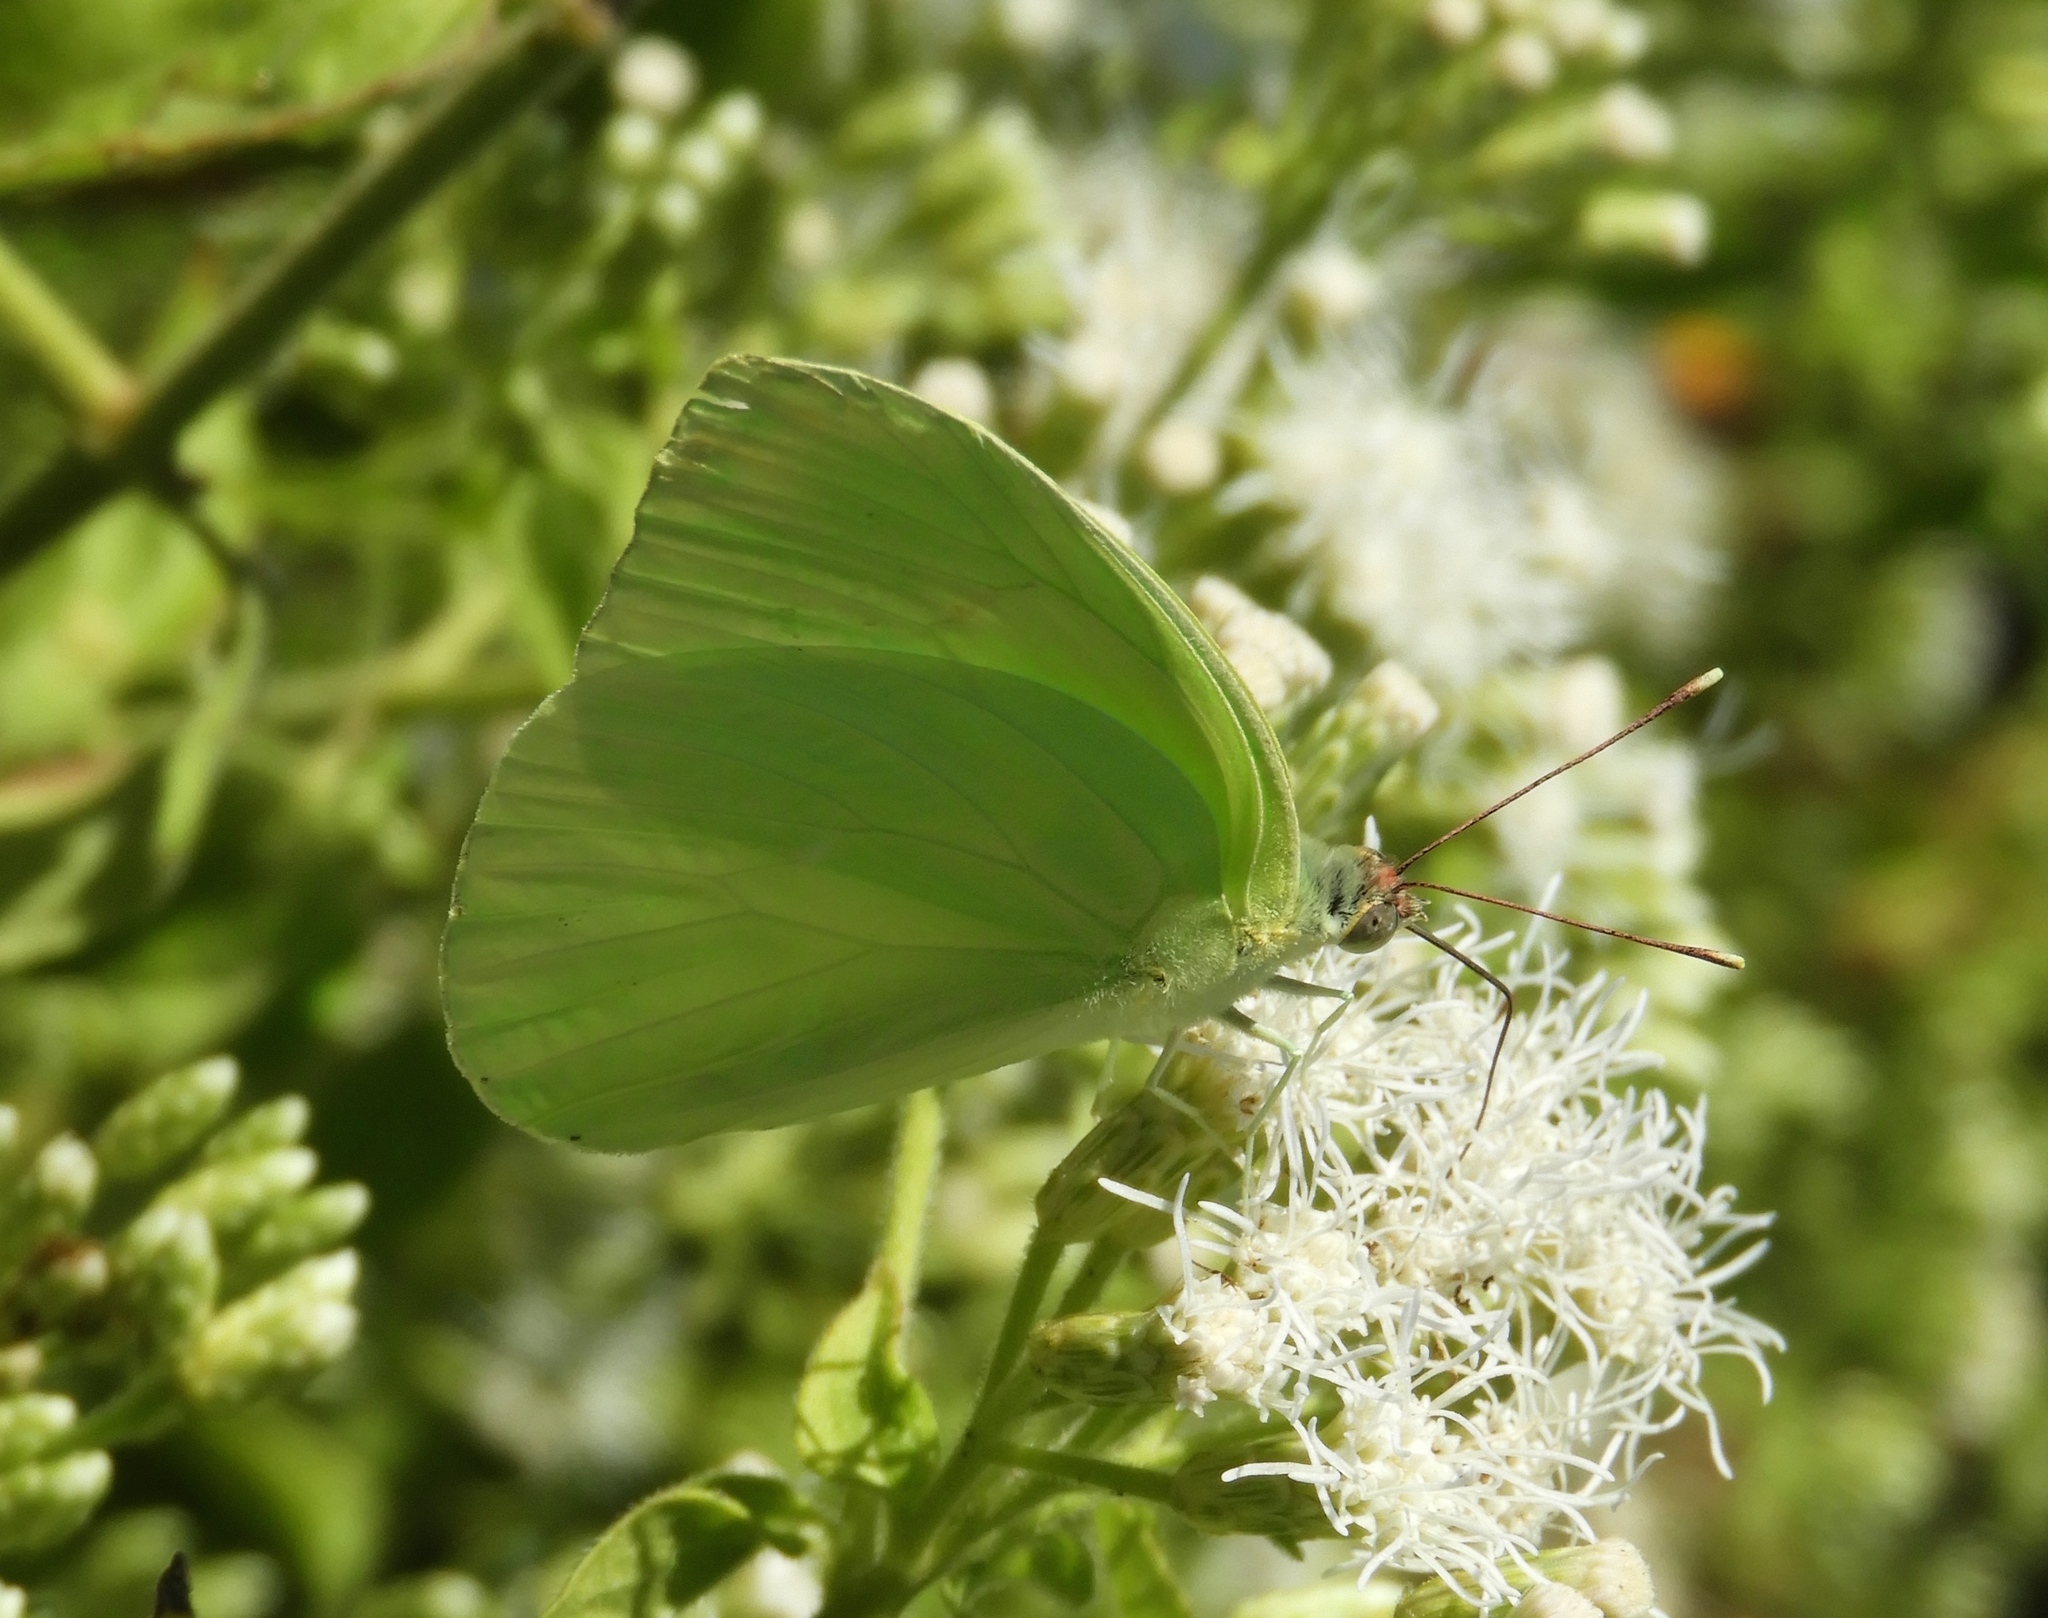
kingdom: Animalia
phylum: Arthropoda
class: Insecta
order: Lepidoptera
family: Pieridae
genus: Aphrissa
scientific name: Aphrissa statira
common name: Statira sulphur
